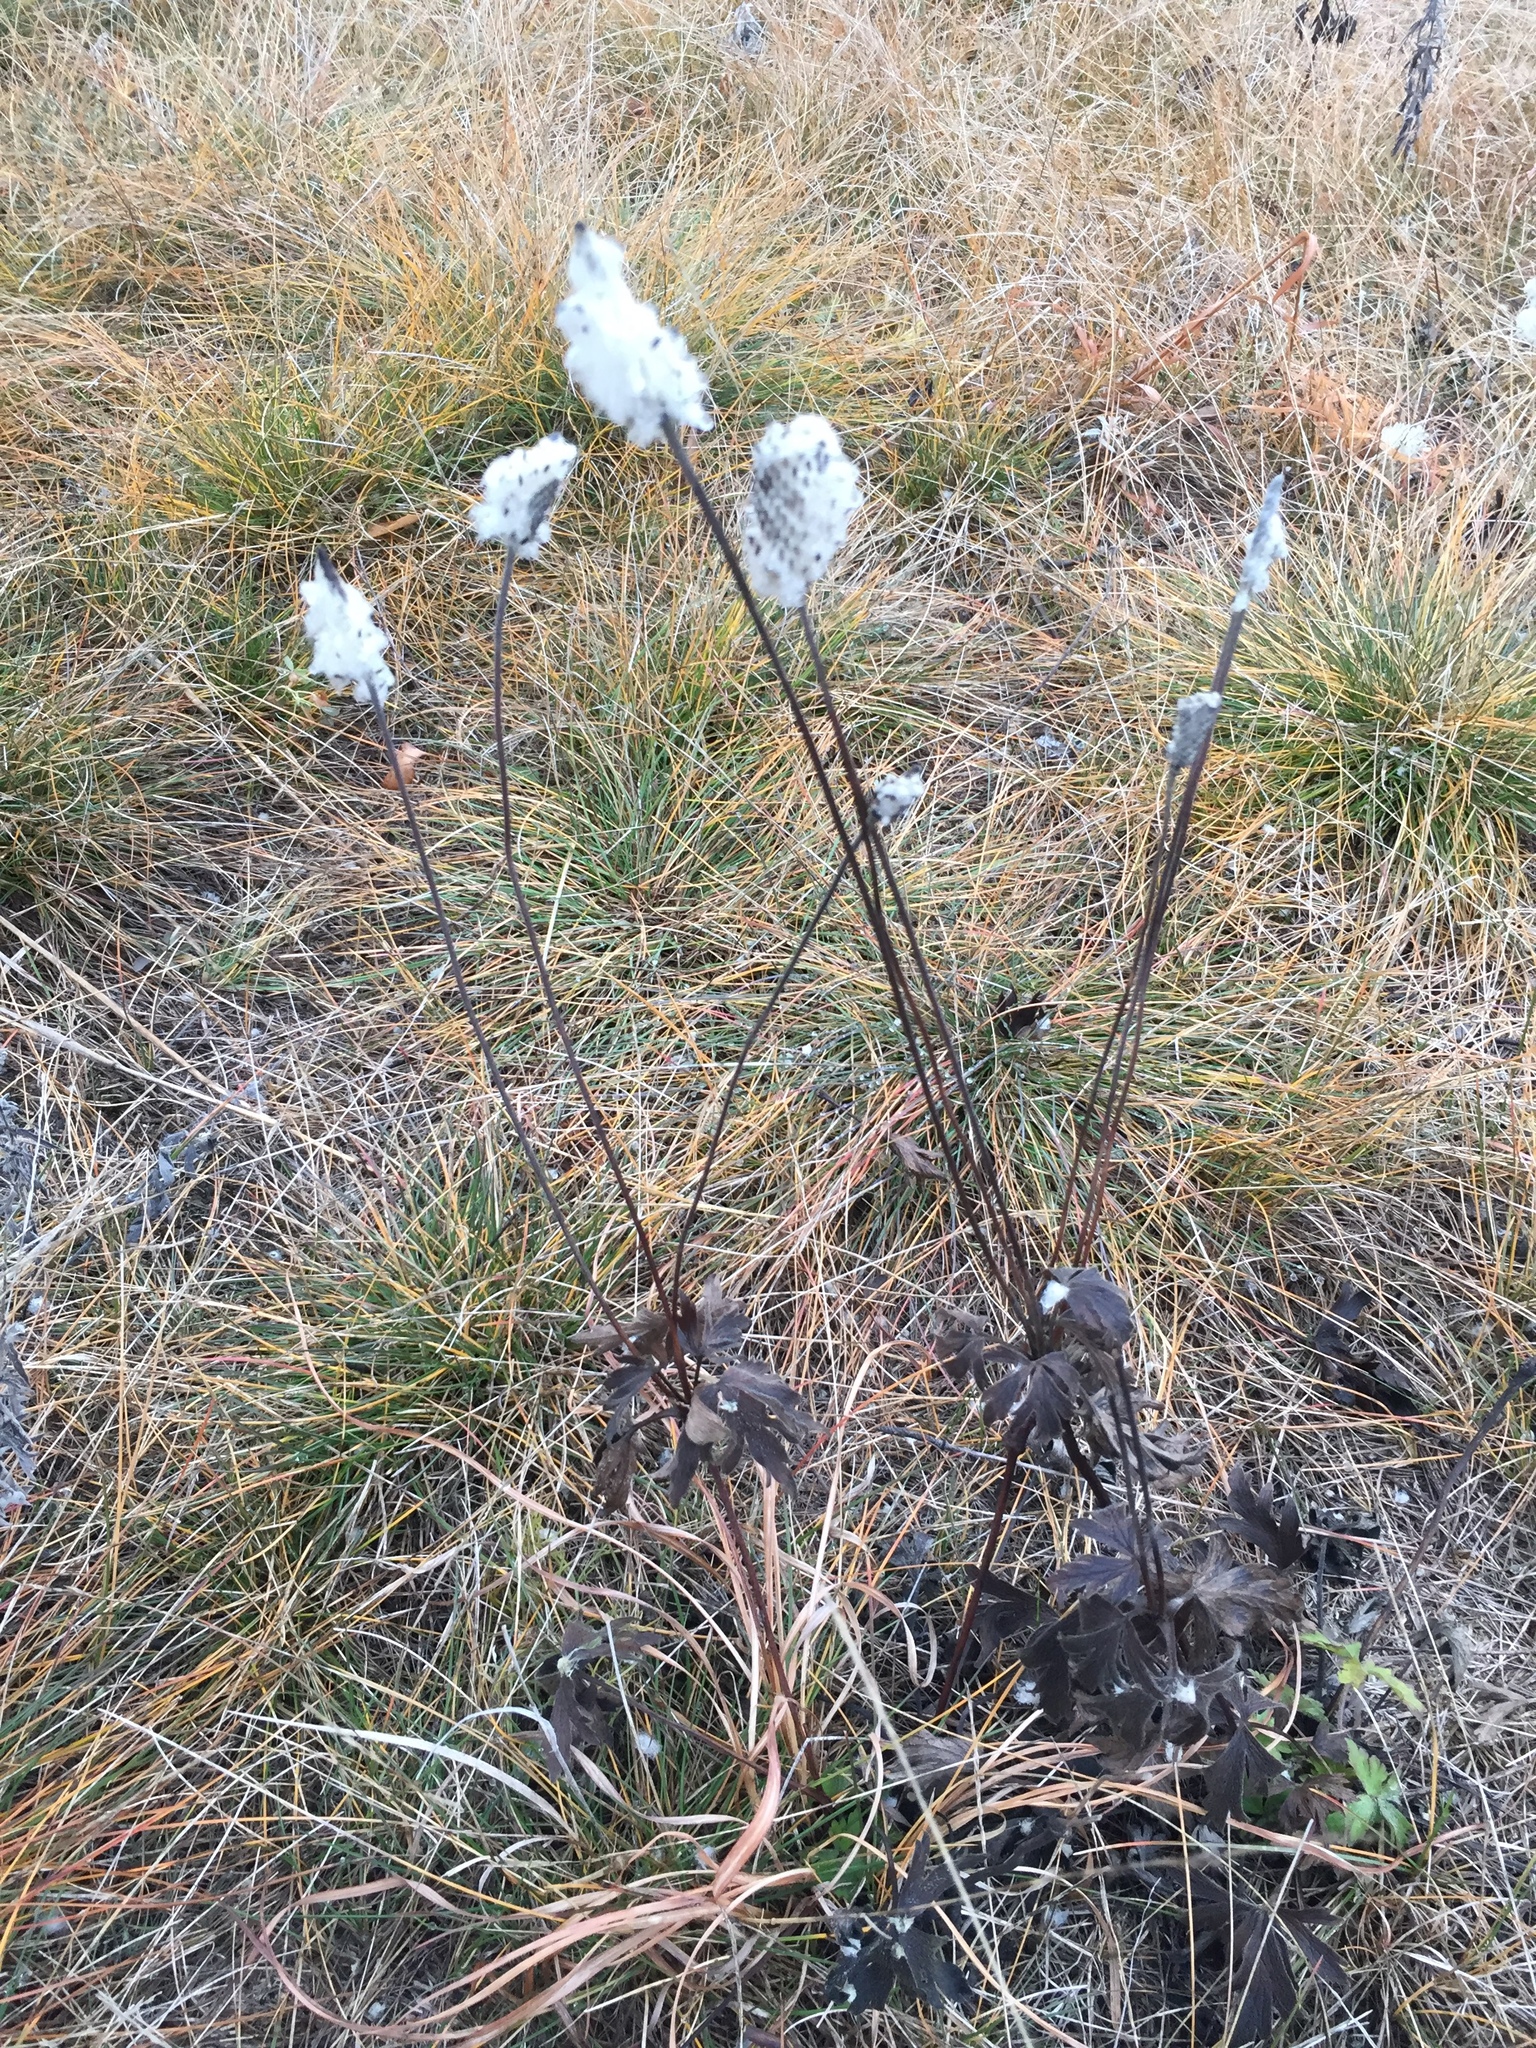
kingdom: Plantae
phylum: Tracheophyta
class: Magnoliopsida
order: Ranunculales
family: Ranunculaceae
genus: Anemone
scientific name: Anemone cylindrica
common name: Candle anemone
